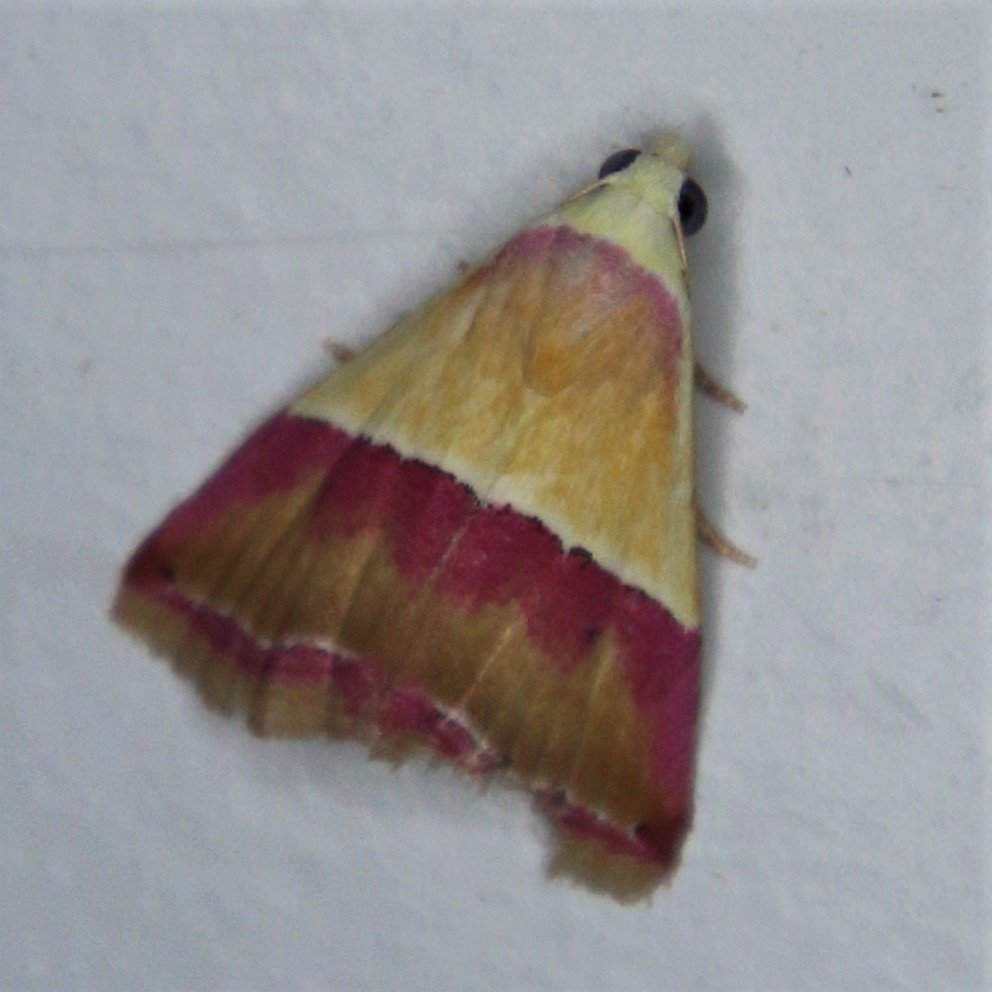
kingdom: Animalia
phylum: Arthropoda
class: Insecta
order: Lepidoptera
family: Noctuidae
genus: Eublemma
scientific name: Eublemma accedens
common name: Moth
